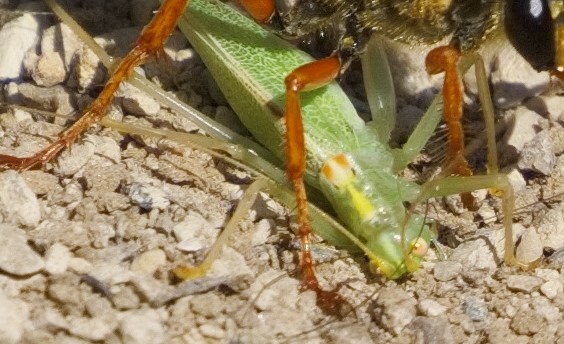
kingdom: Animalia
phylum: Arthropoda
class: Insecta
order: Orthoptera
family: Tettigoniidae
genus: Meconema
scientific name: Meconema thalassinum
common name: Oak bush-cricket
